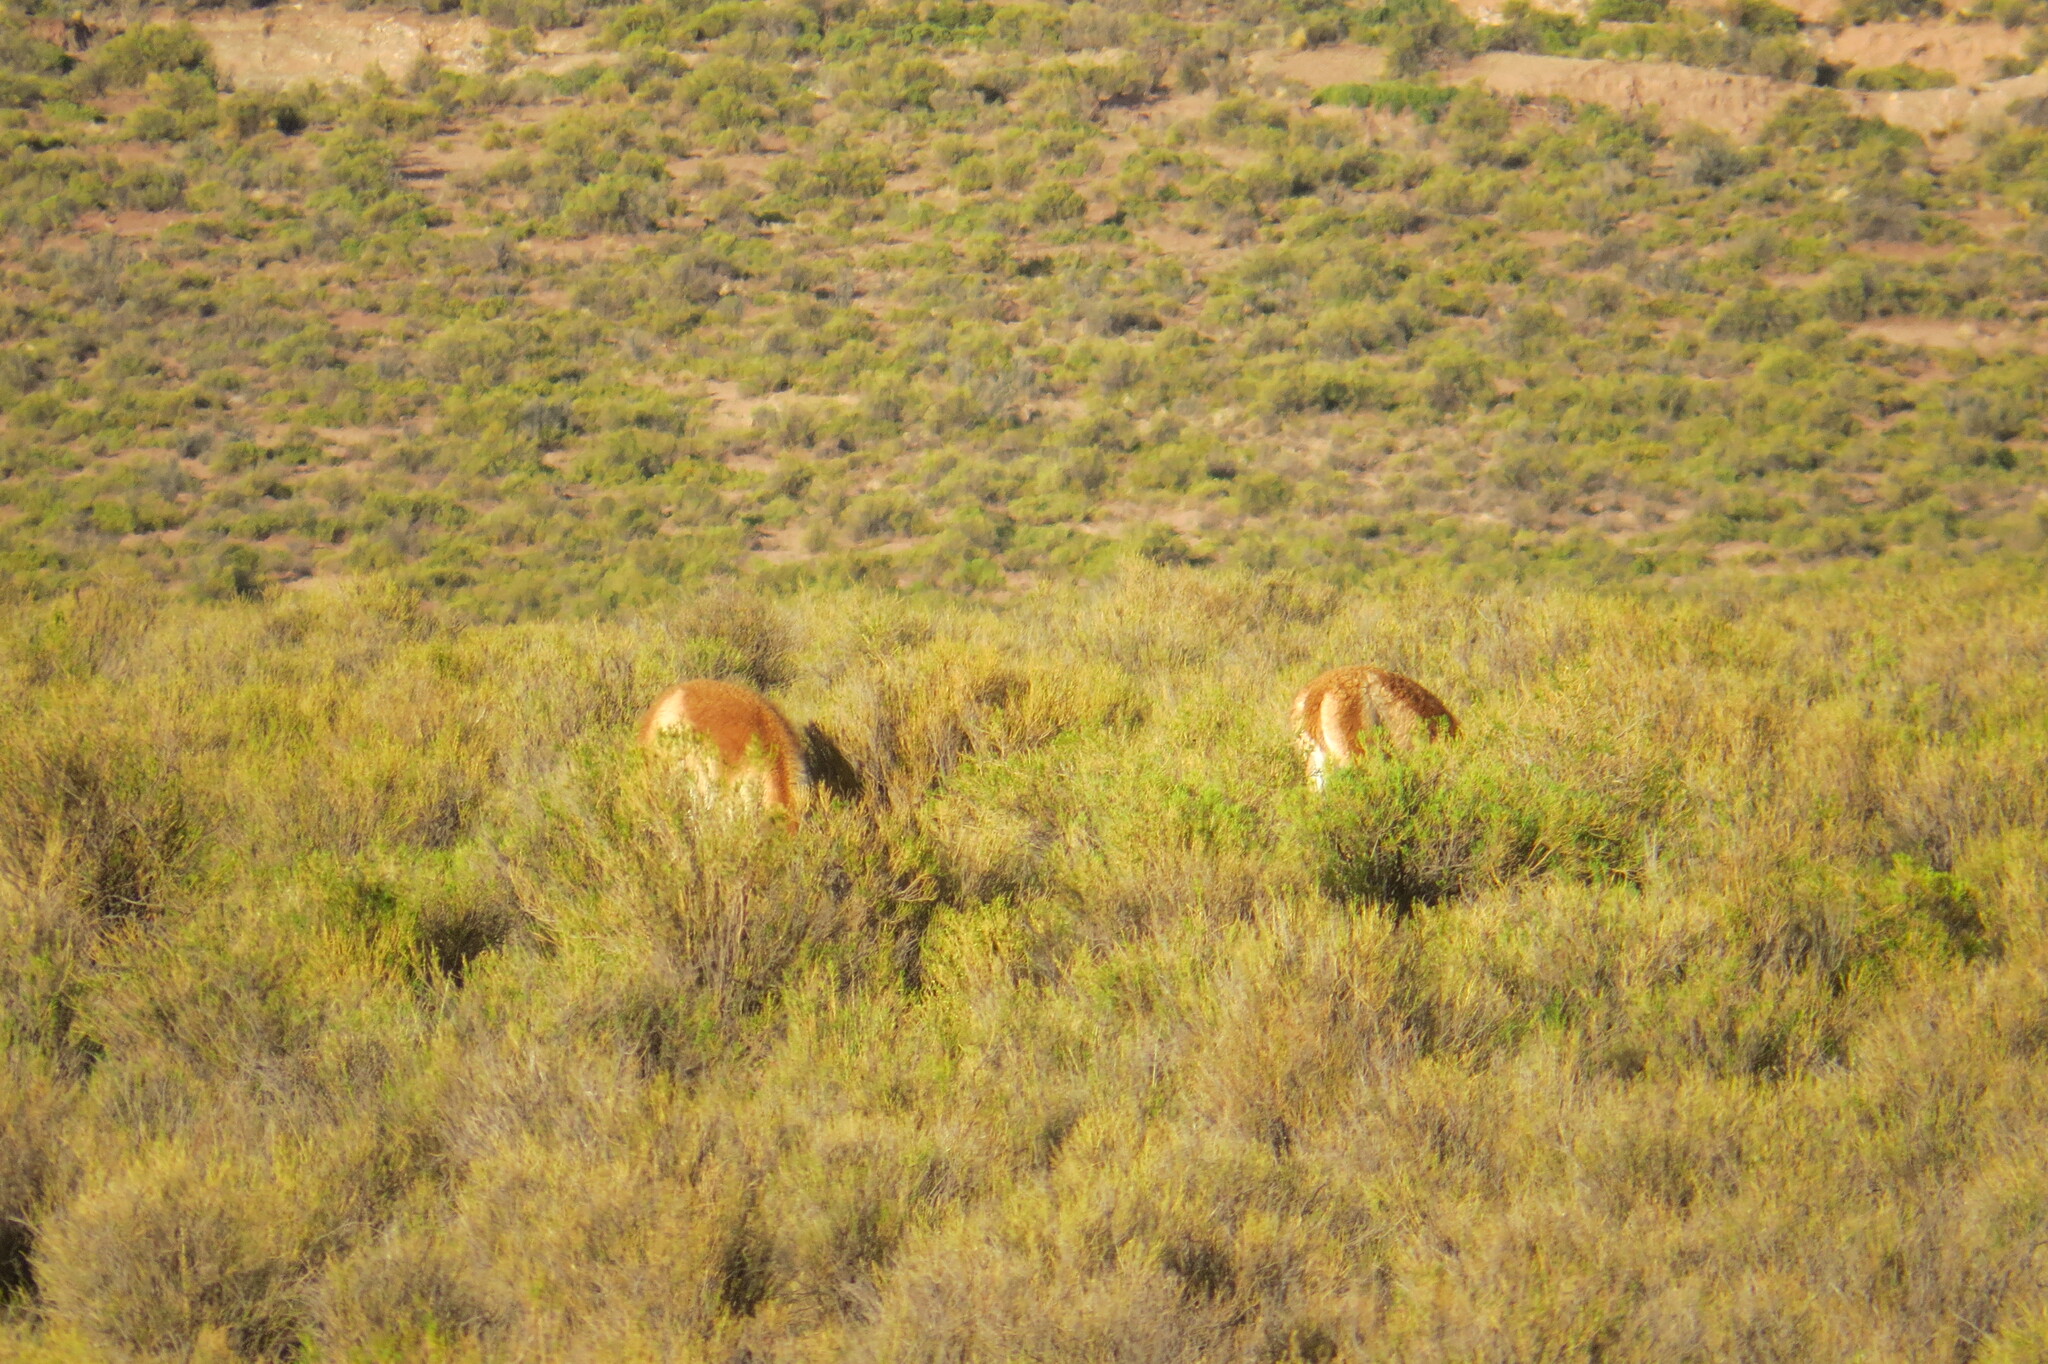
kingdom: Animalia
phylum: Chordata
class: Mammalia
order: Artiodactyla
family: Camelidae
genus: Vicugna
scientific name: Vicugna vicugna
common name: Vicugna
